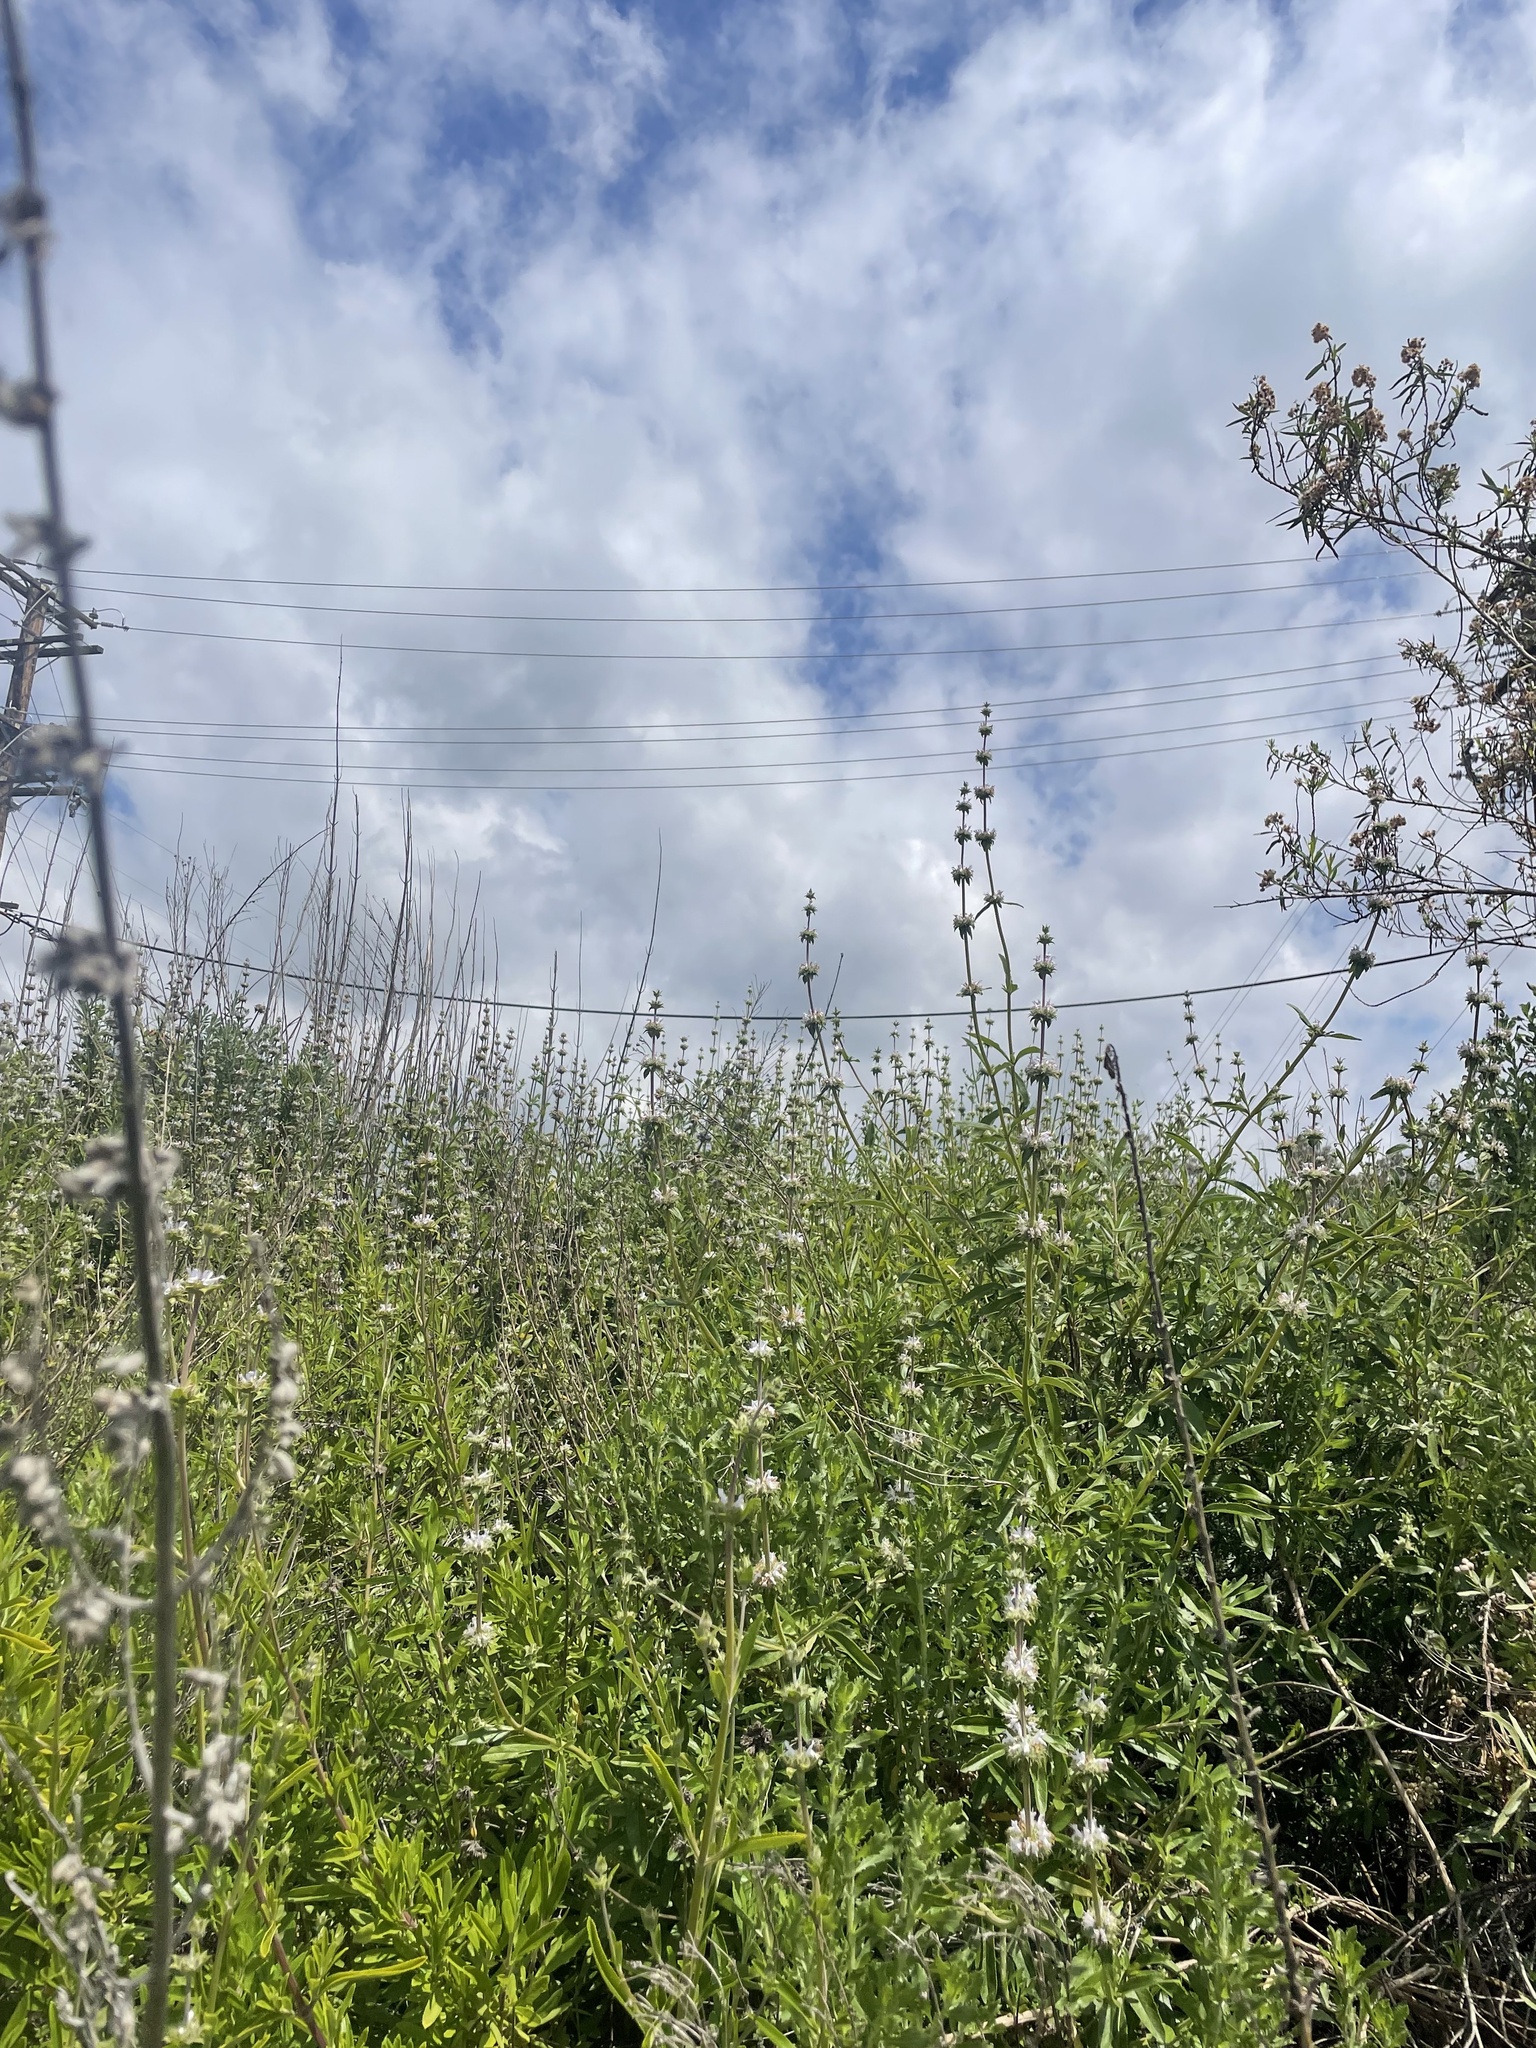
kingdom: Animalia
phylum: Arthropoda
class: Insecta
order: Hymenoptera
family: Apidae
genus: Bombus
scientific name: Bombus crotchii
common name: Crotch bumble bee
